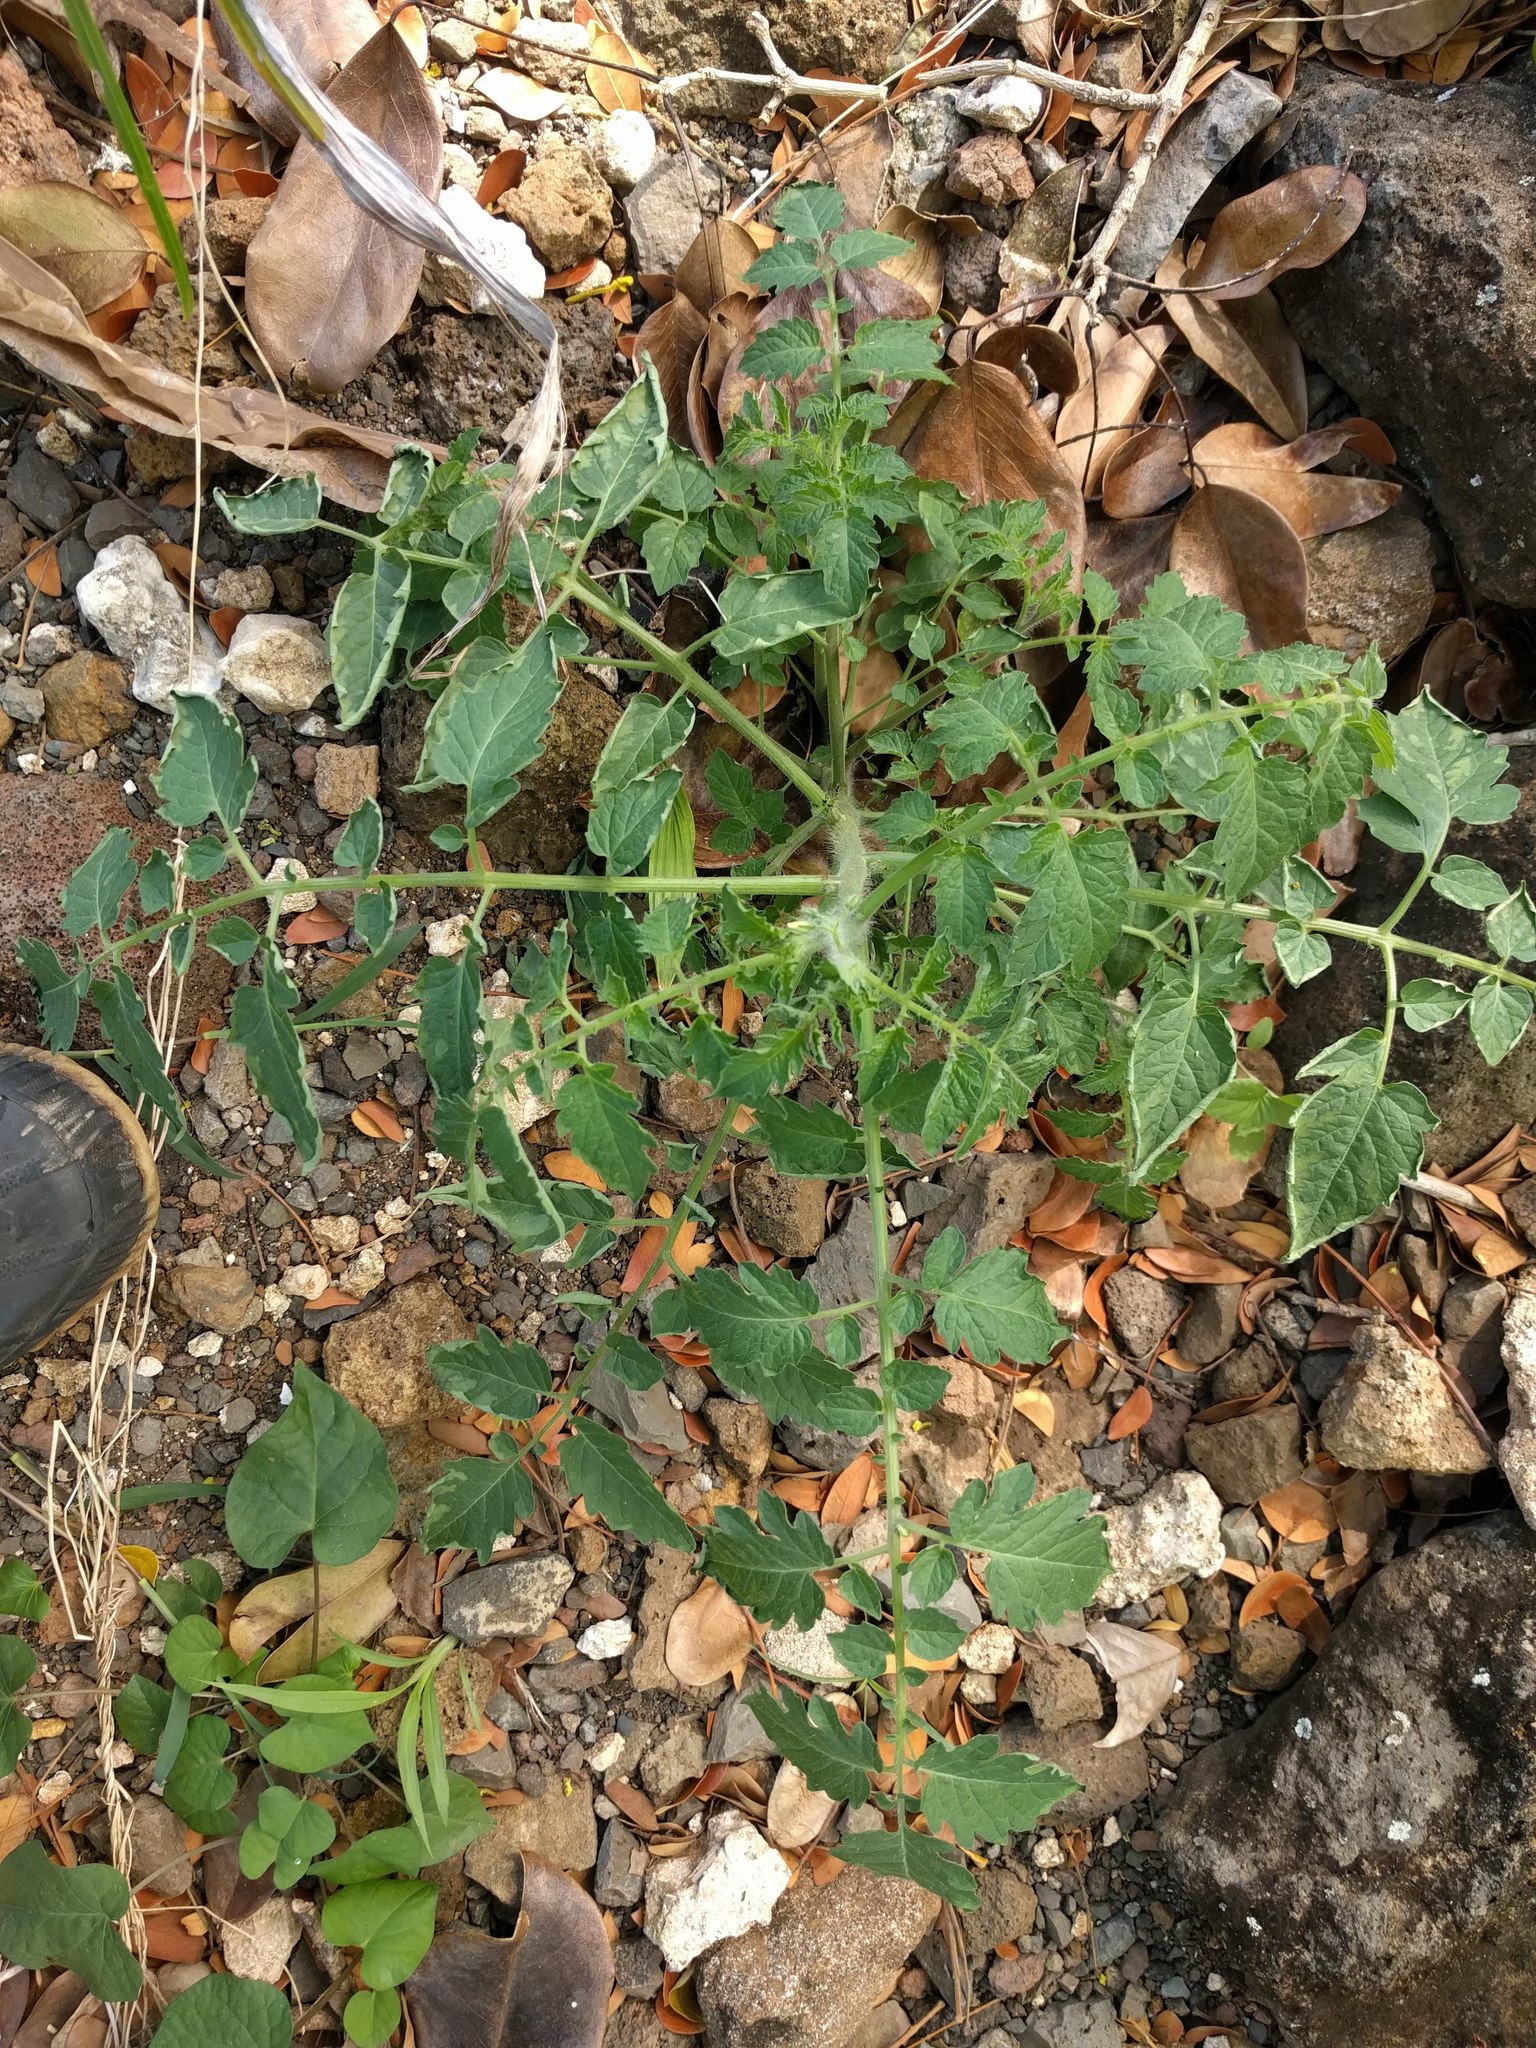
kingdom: Plantae
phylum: Tracheophyta
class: Magnoliopsida
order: Solanales
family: Solanaceae
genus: Solanum
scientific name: Solanum lycopersicum
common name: Garden tomato
